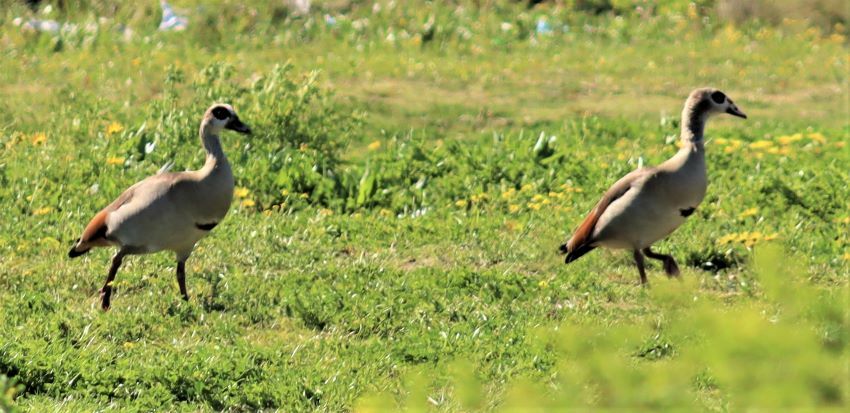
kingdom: Animalia
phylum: Chordata
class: Aves
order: Anseriformes
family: Anatidae
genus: Alopochen
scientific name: Alopochen aegyptiaca
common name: Egyptian goose
